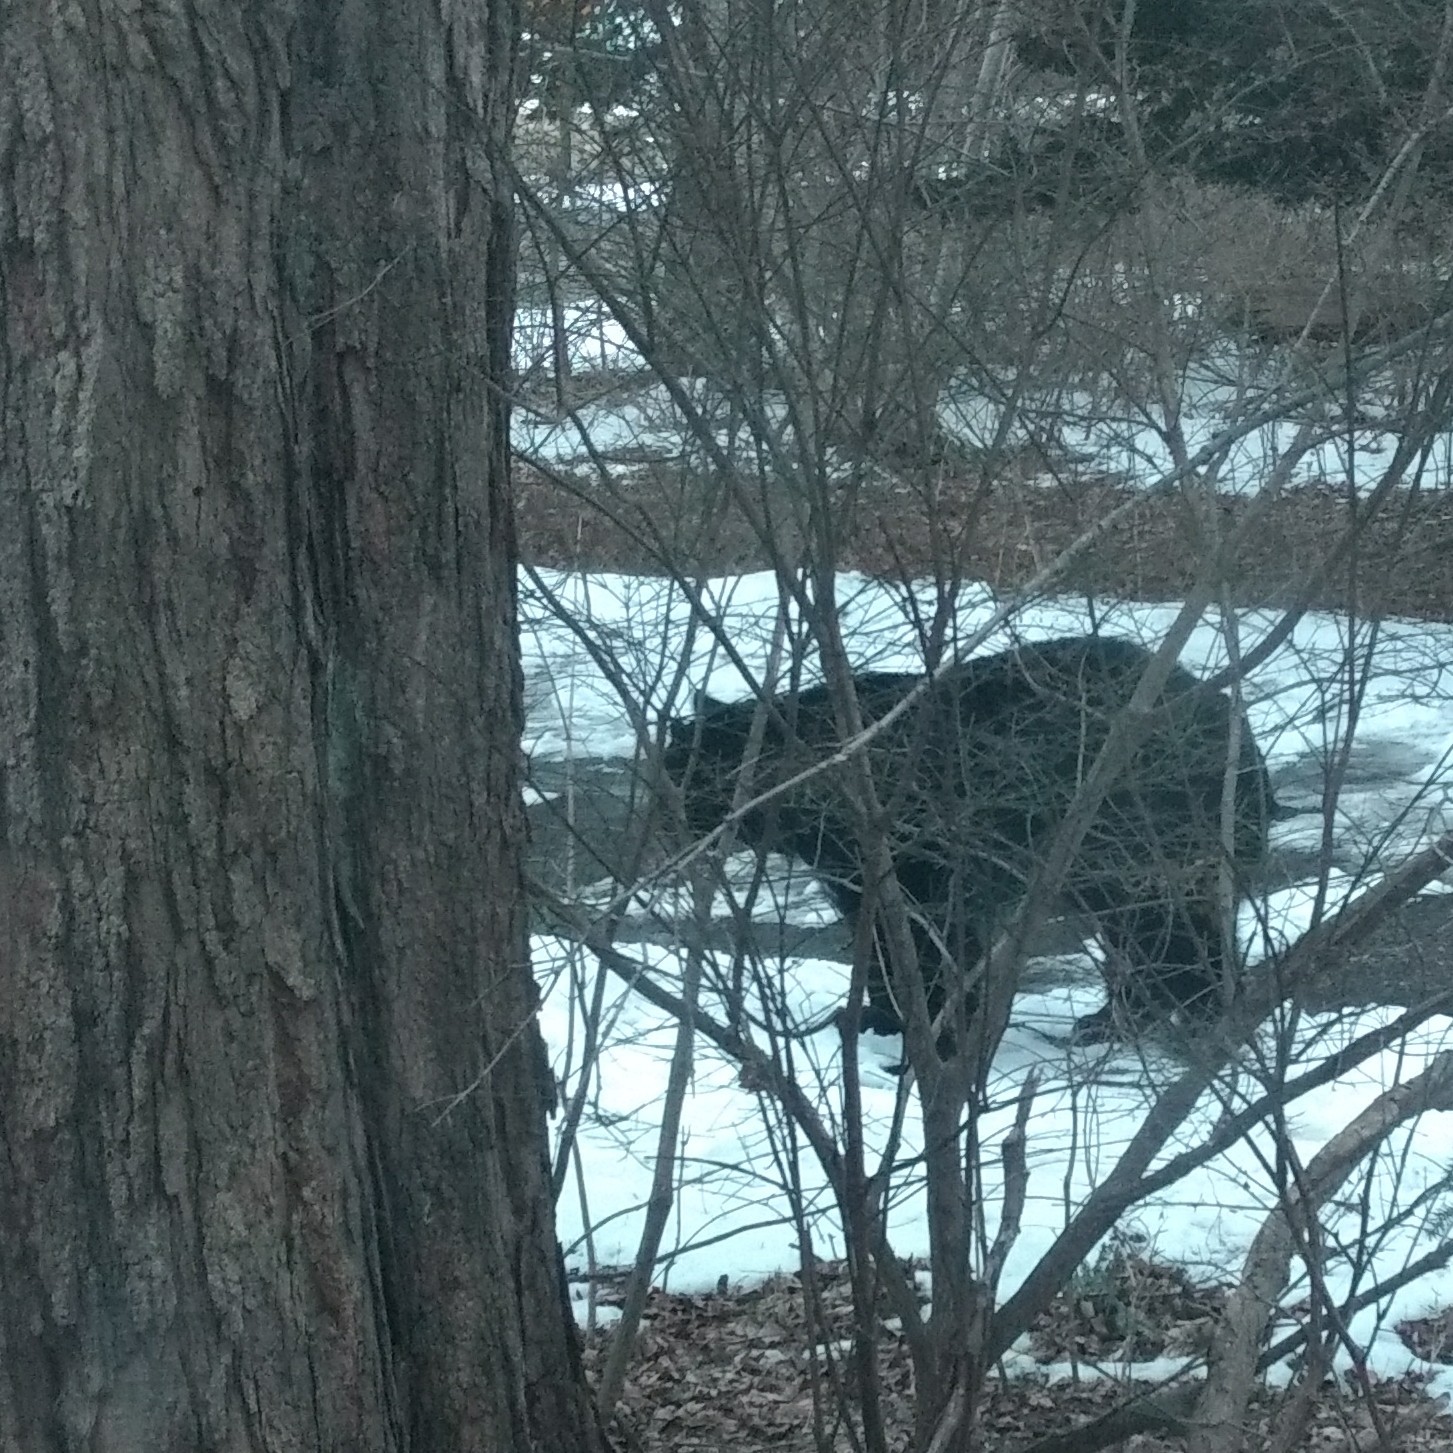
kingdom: Animalia
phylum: Chordata
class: Mammalia
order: Carnivora
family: Ursidae
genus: Ursus
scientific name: Ursus americanus
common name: American black bear
